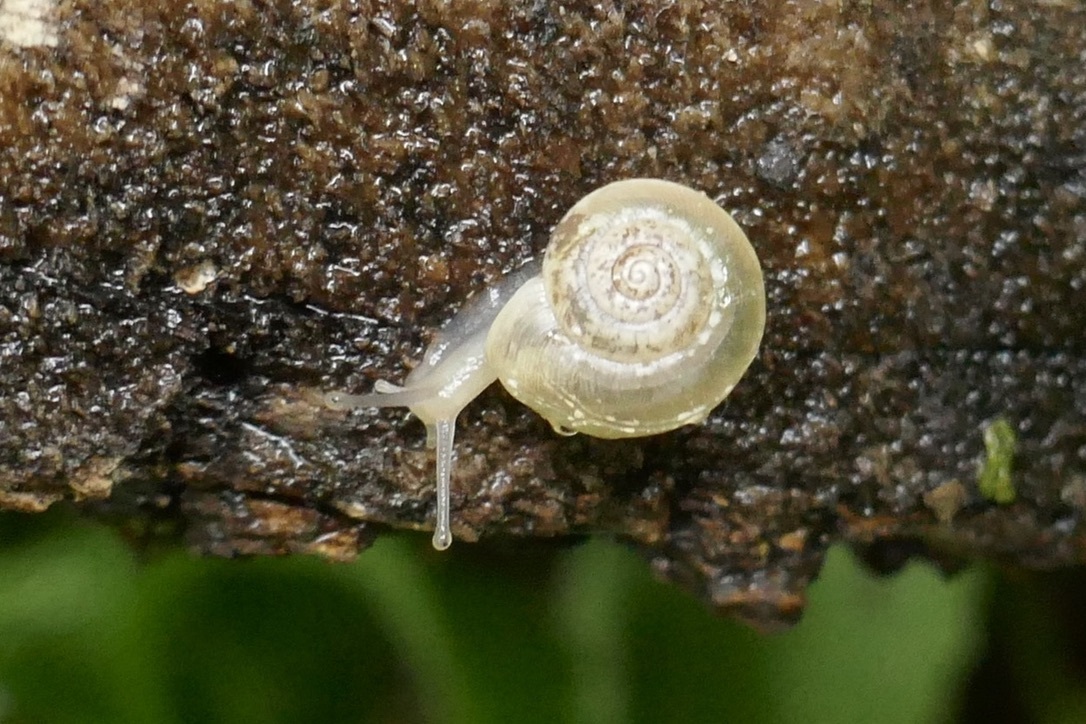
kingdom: Animalia
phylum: Mollusca
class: Gastropoda
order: Stylommatophora
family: Hygromiidae
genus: Hygromia
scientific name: Hygromia cinctella
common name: Girdled snail
